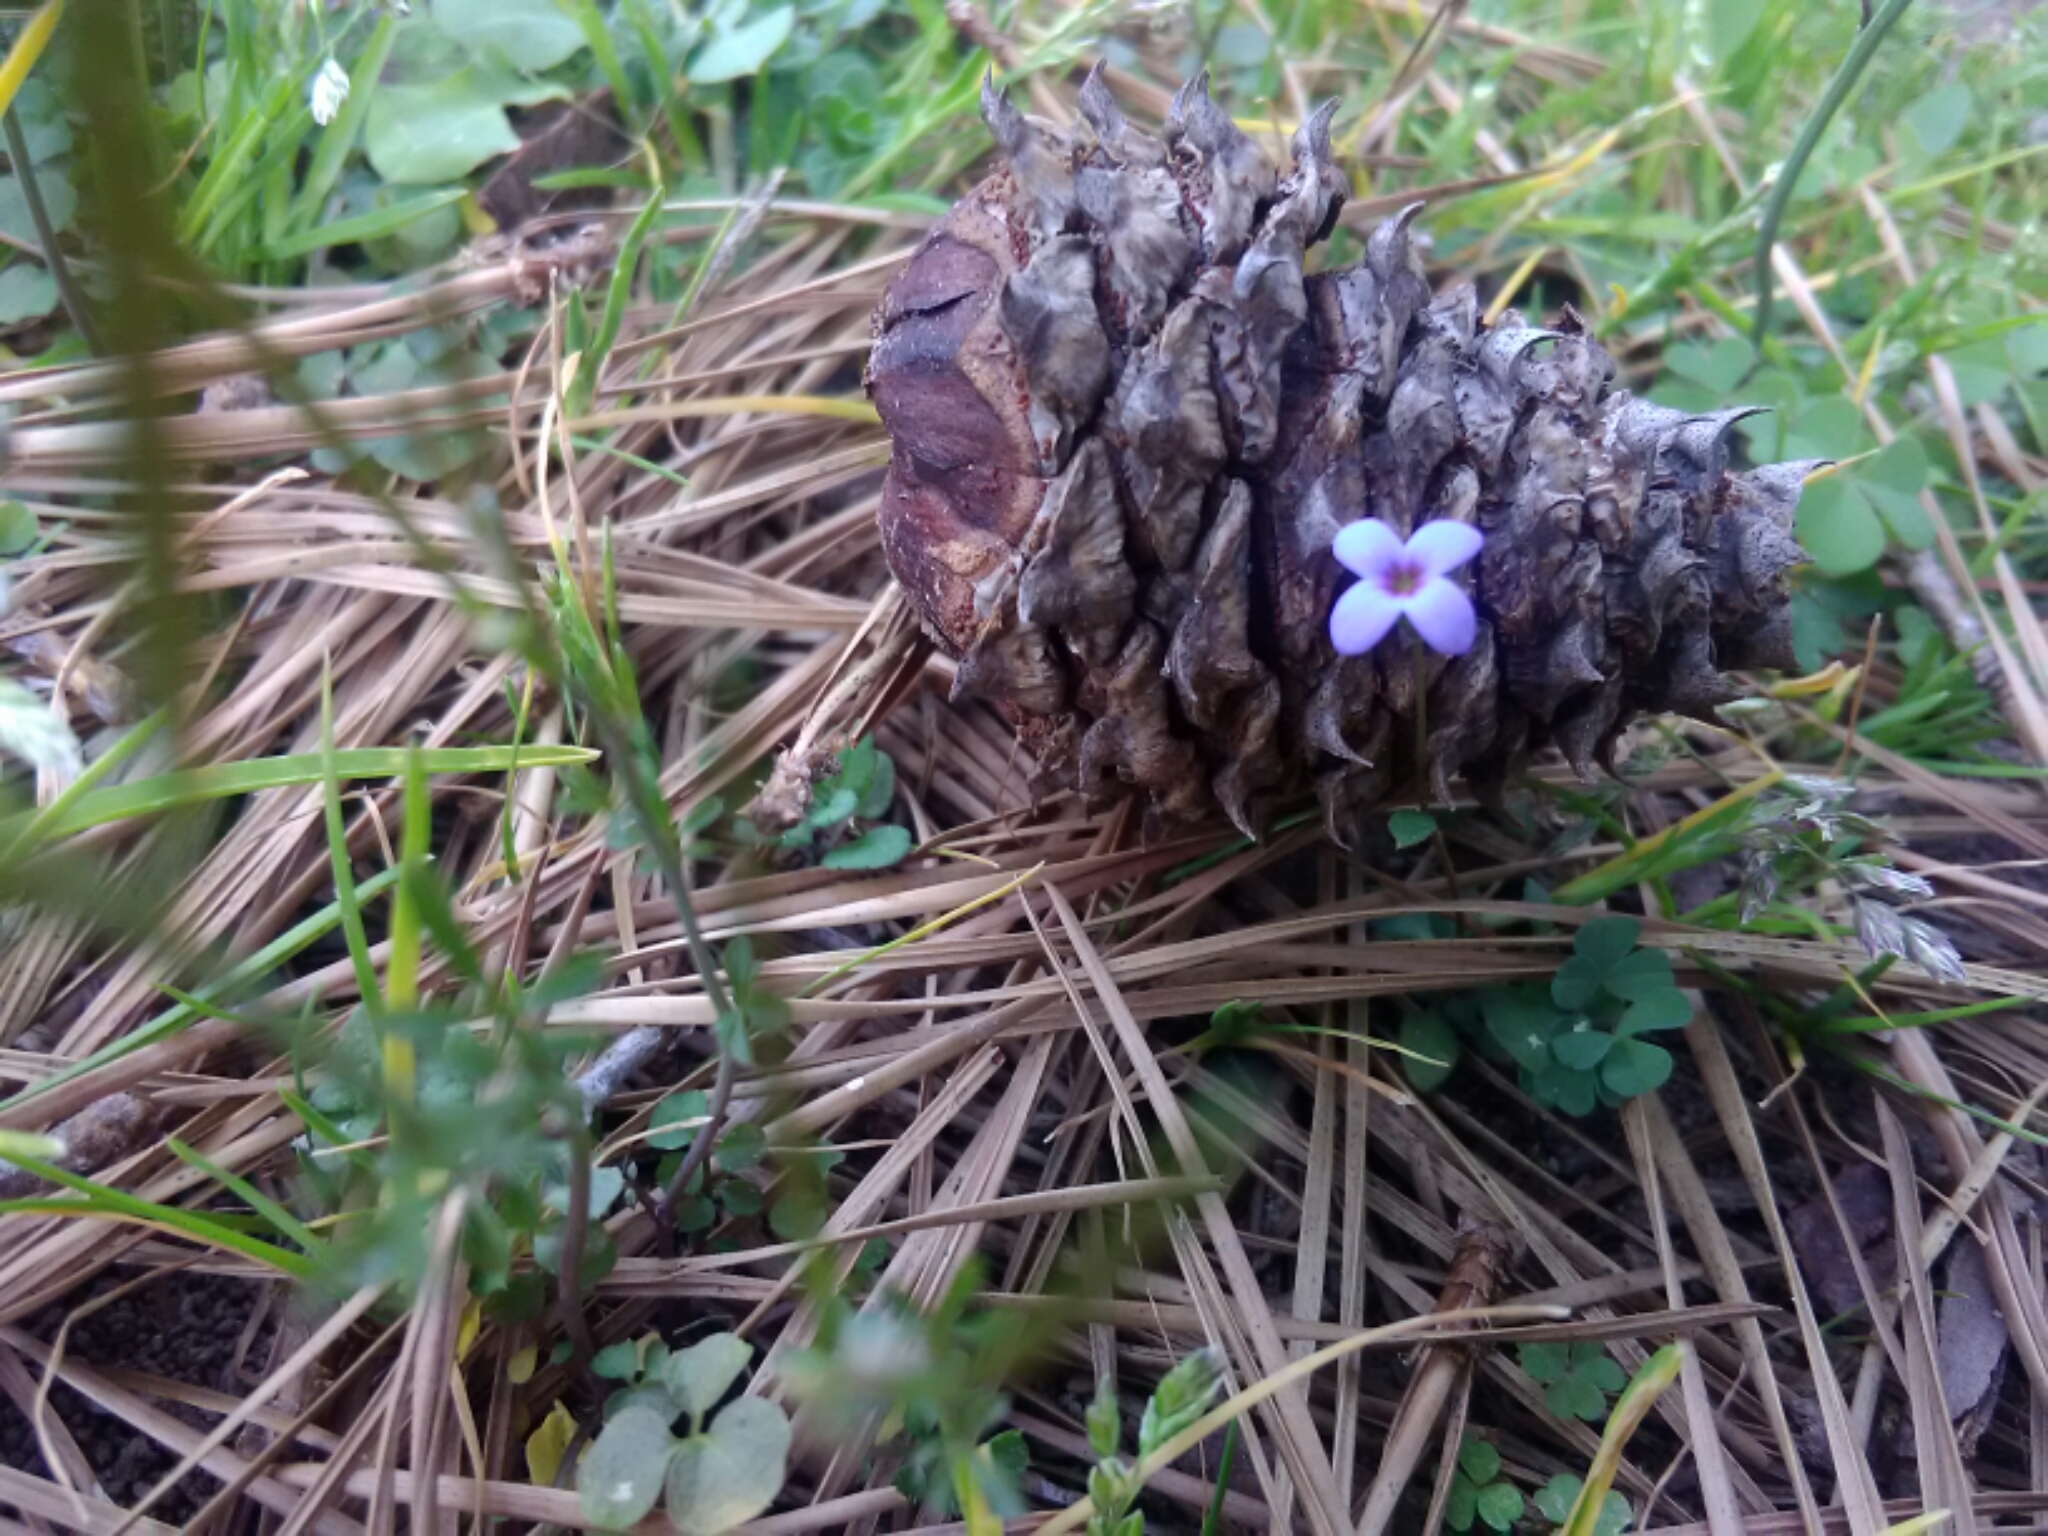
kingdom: Plantae
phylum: Tracheophyta
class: Magnoliopsida
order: Gentianales
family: Rubiaceae
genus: Houstonia
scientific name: Houstonia pusilla
